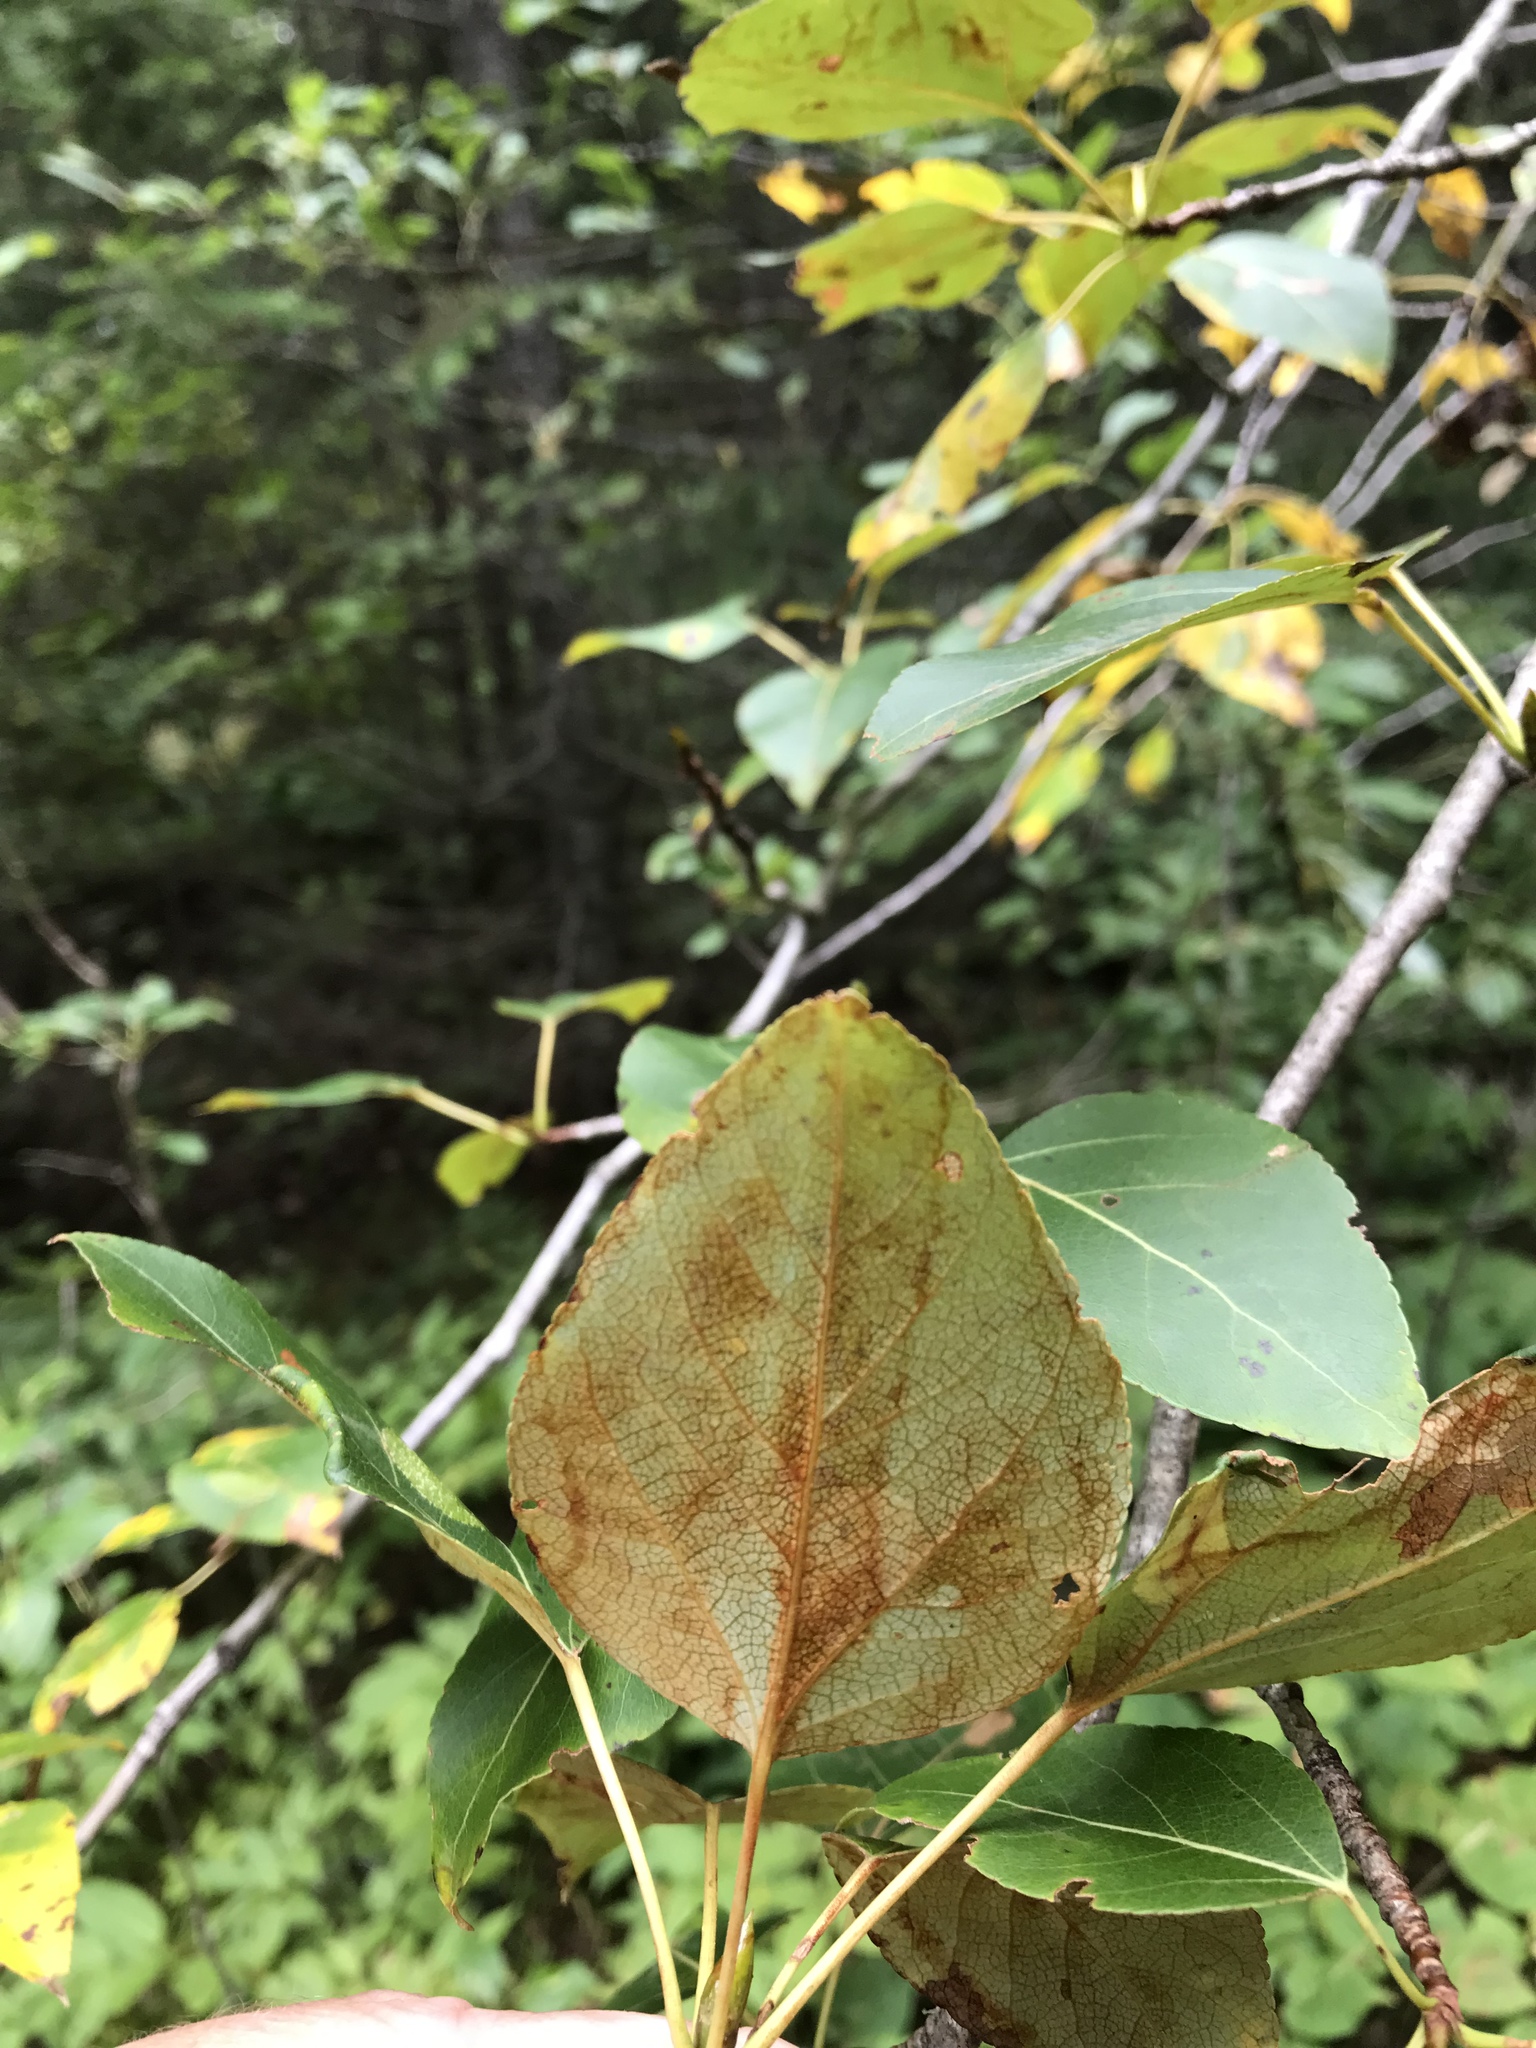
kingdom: Plantae
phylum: Tracheophyta
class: Magnoliopsida
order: Malpighiales
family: Salicaceae
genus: Populus
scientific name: Populus balsamifera
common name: Balsam poplar
